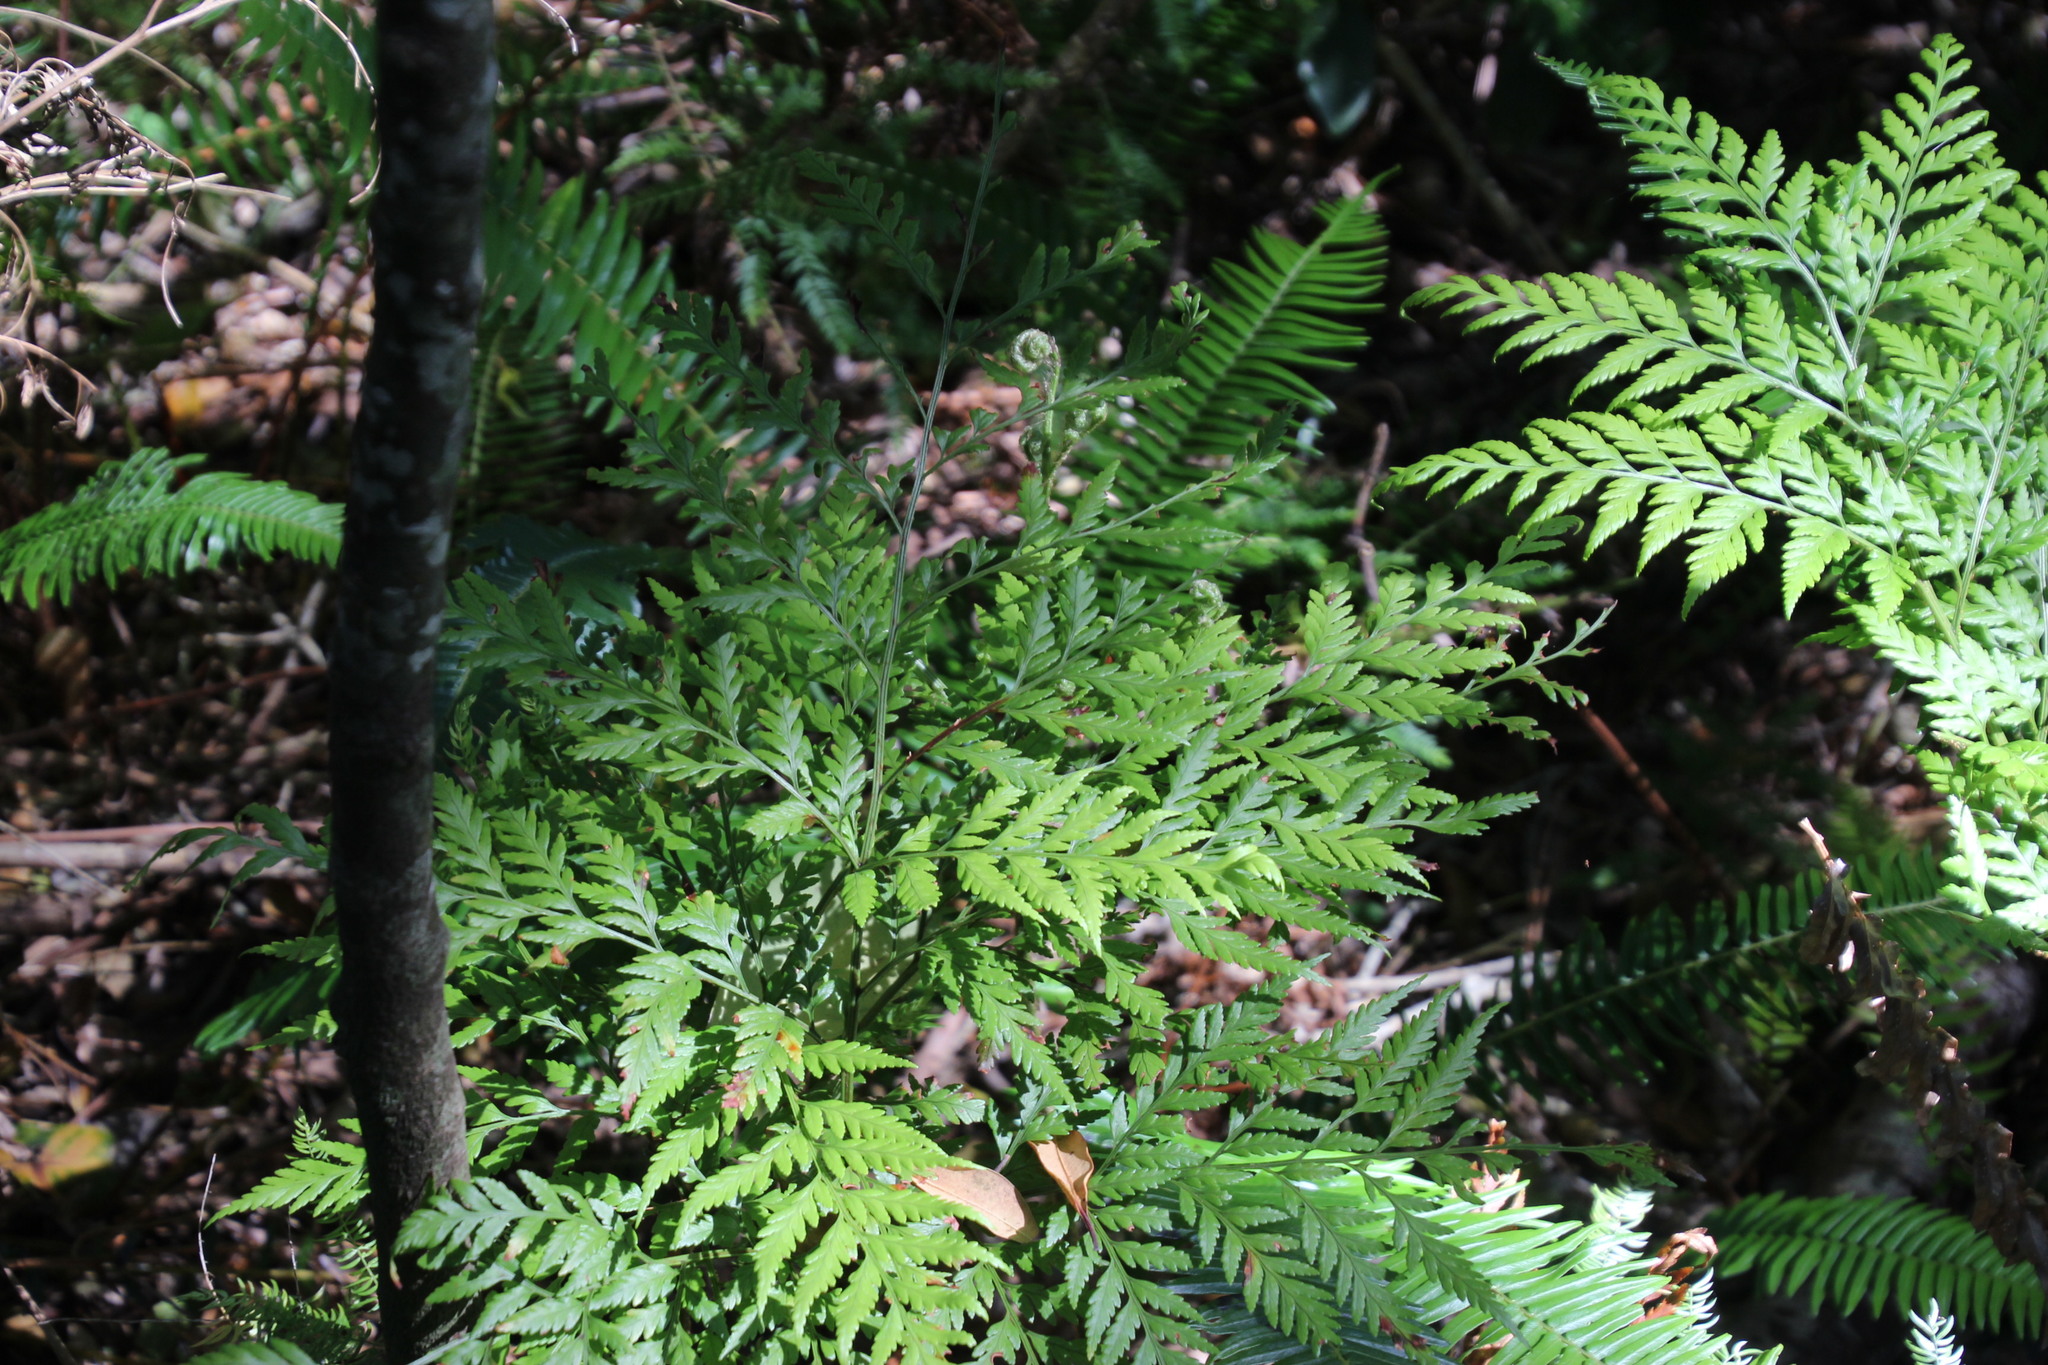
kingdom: Plantae
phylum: Tracheophyta
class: Polypodiopsida
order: Polypodiales
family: Dryopteridaceae
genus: Rumohra
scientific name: Rumohra adiantiformis
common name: Leather fern
